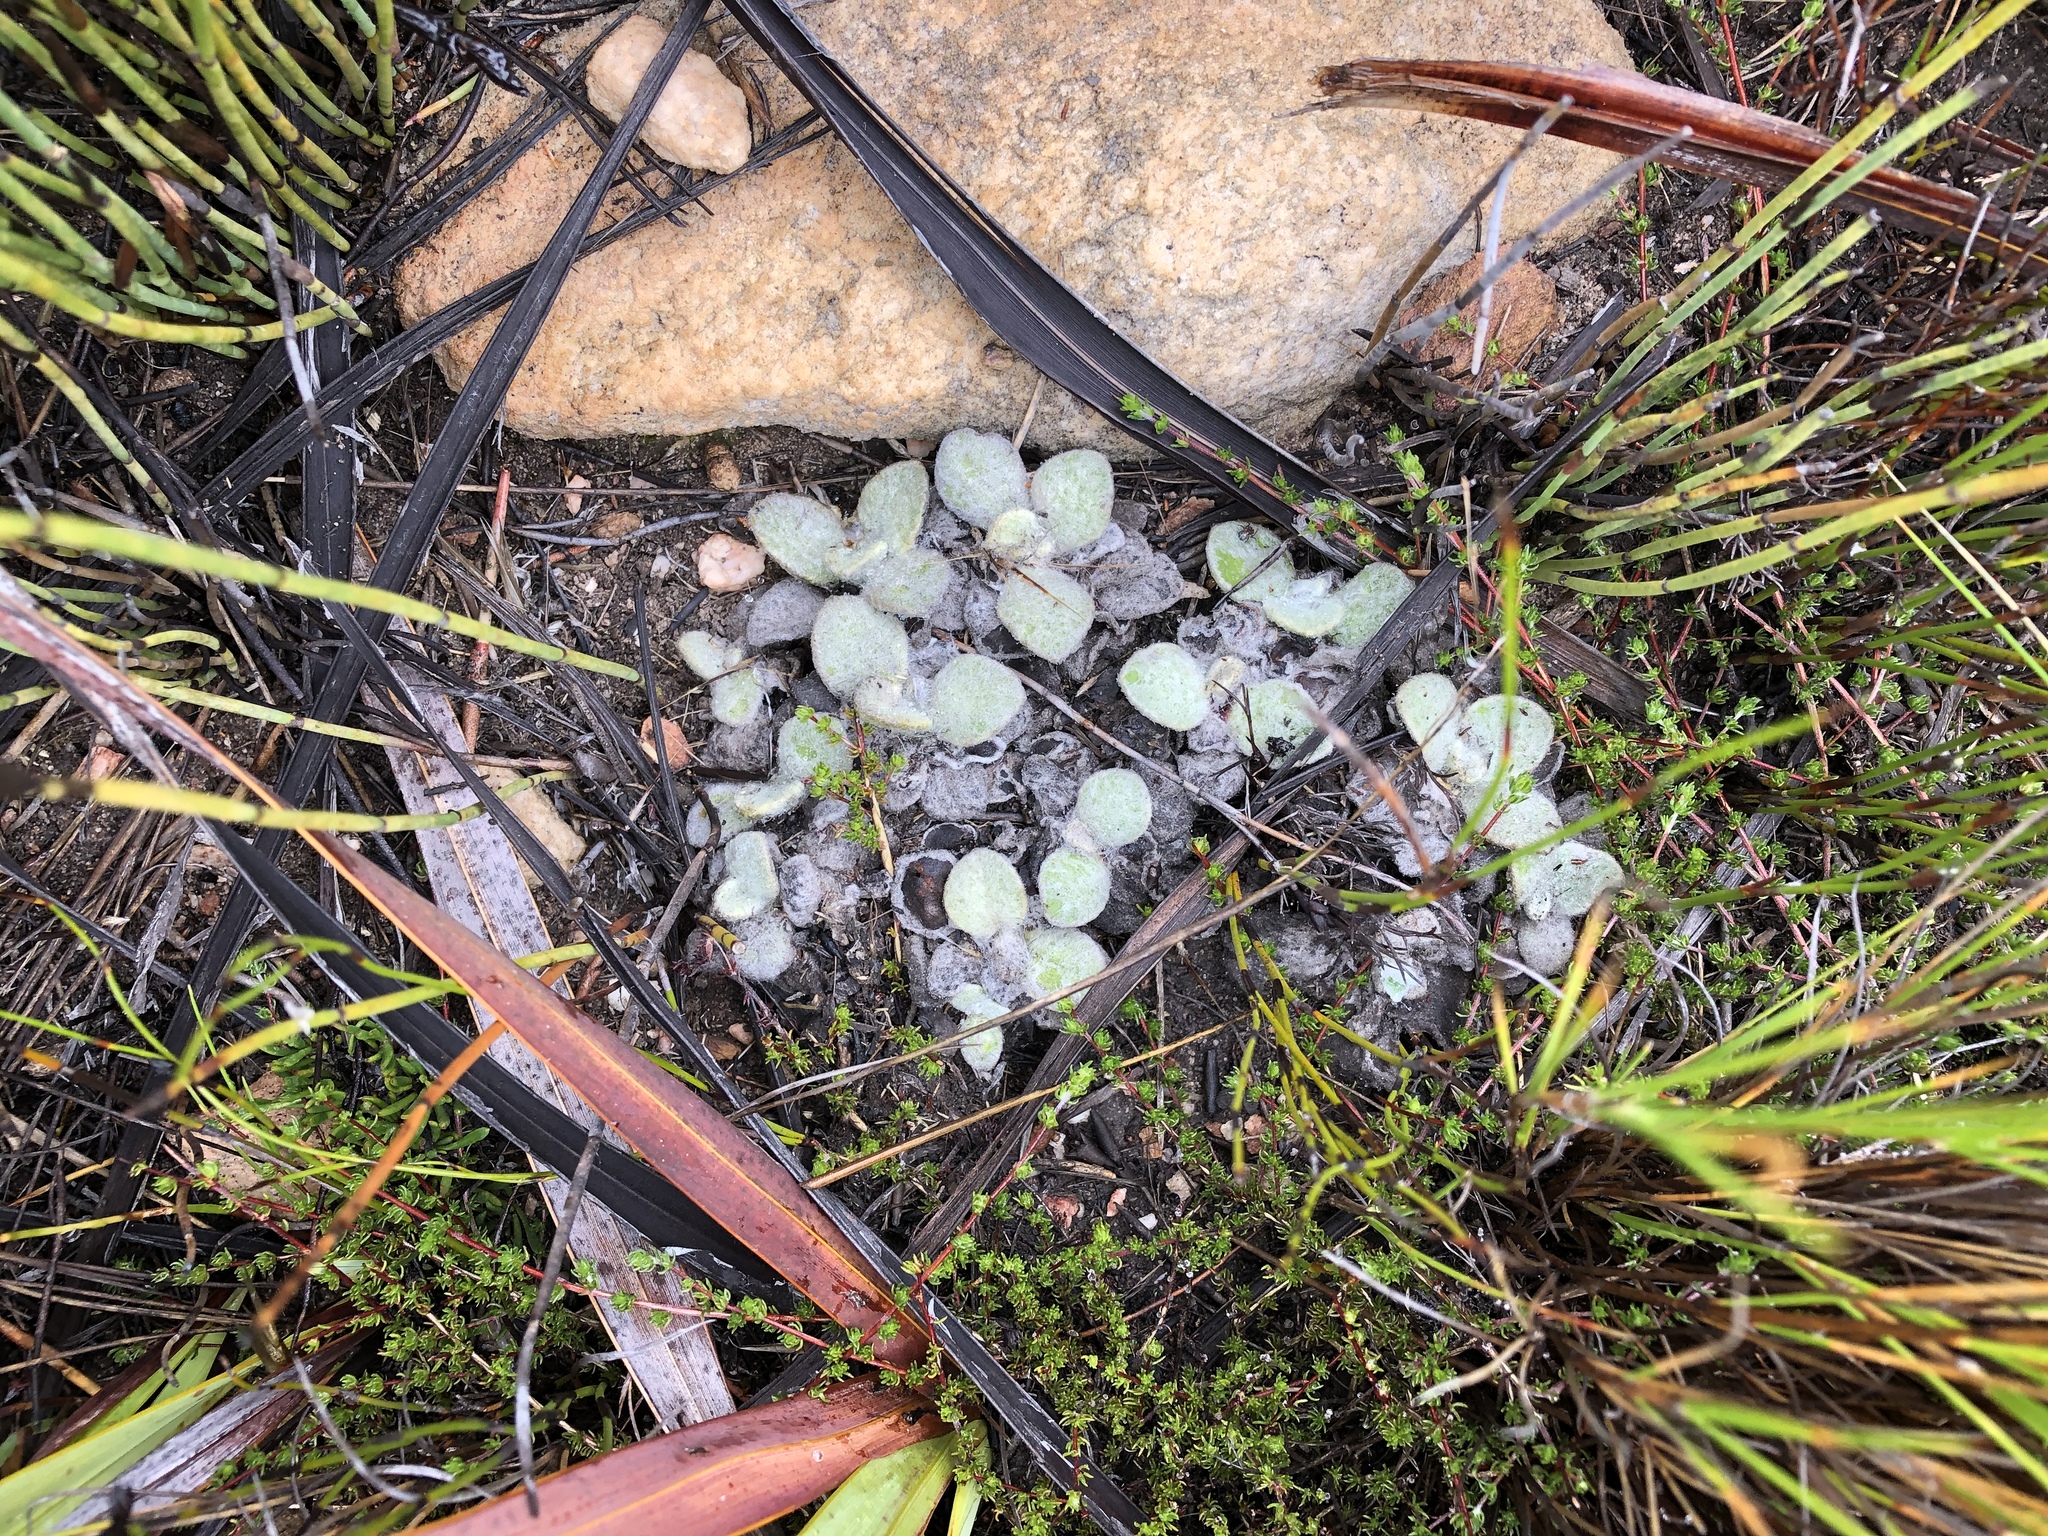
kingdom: Plantae
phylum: Tracheophyta
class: Magnoliopsida
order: Asterales
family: Asteraceae
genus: Helichrysum
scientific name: Helichrysum rotundifolium
